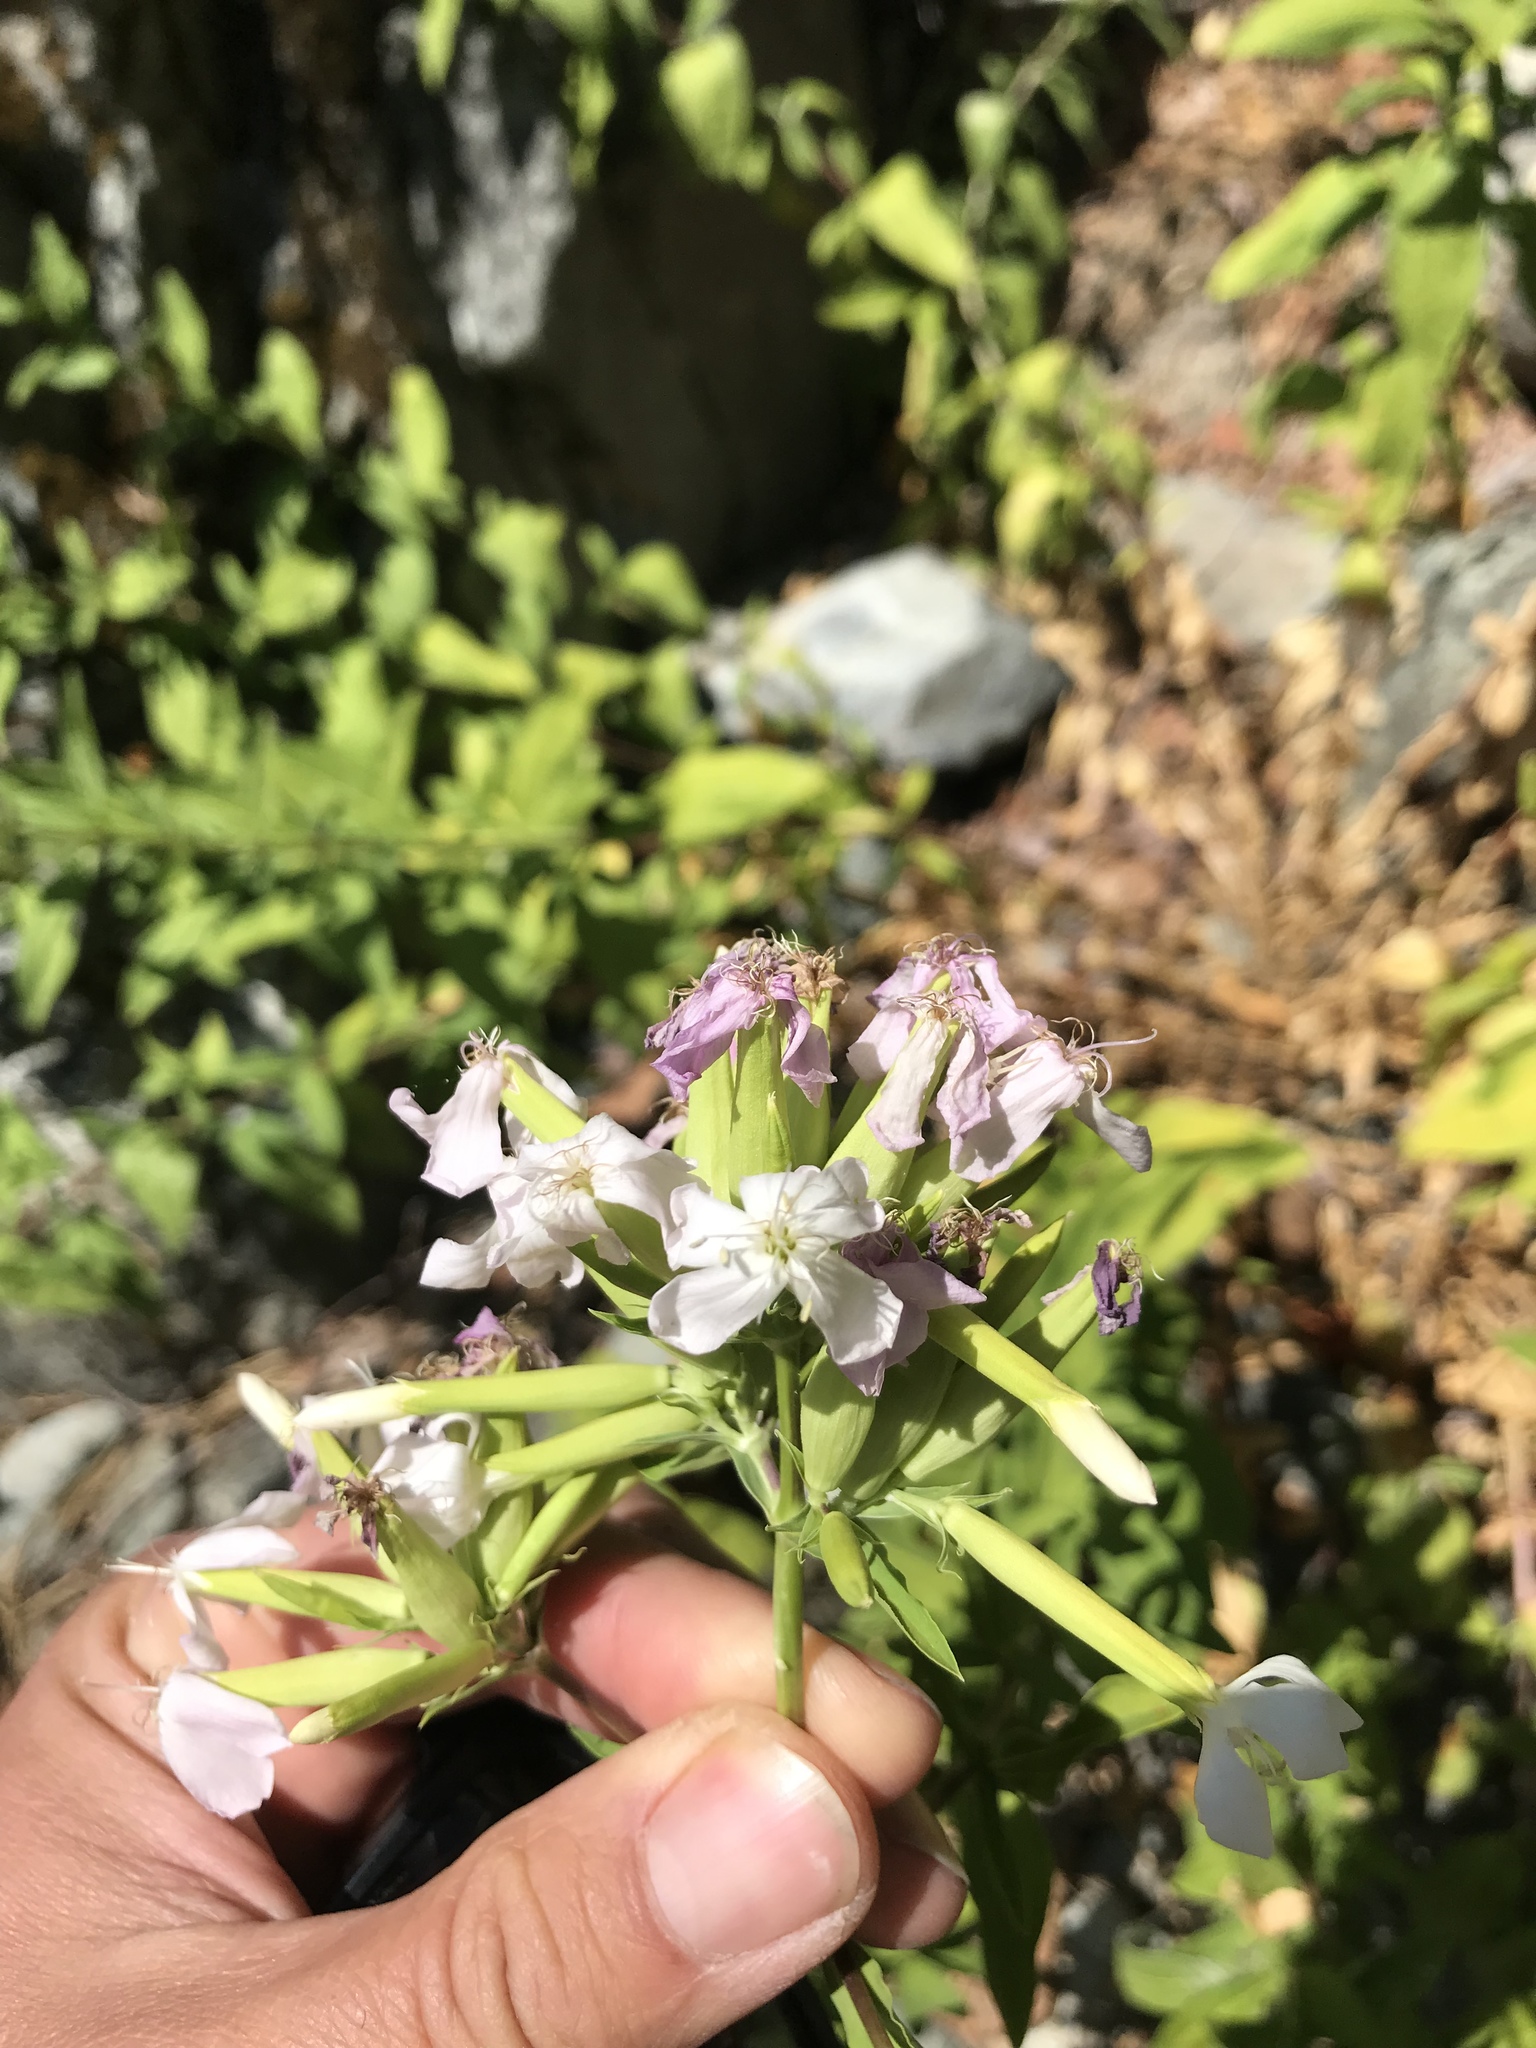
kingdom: Plantae
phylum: Tracheophyta
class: Magnoliopsida
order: Caryophyllales
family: Caryophyllaceae
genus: Saponaria
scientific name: Saponaria officinalis
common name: Soapwort
